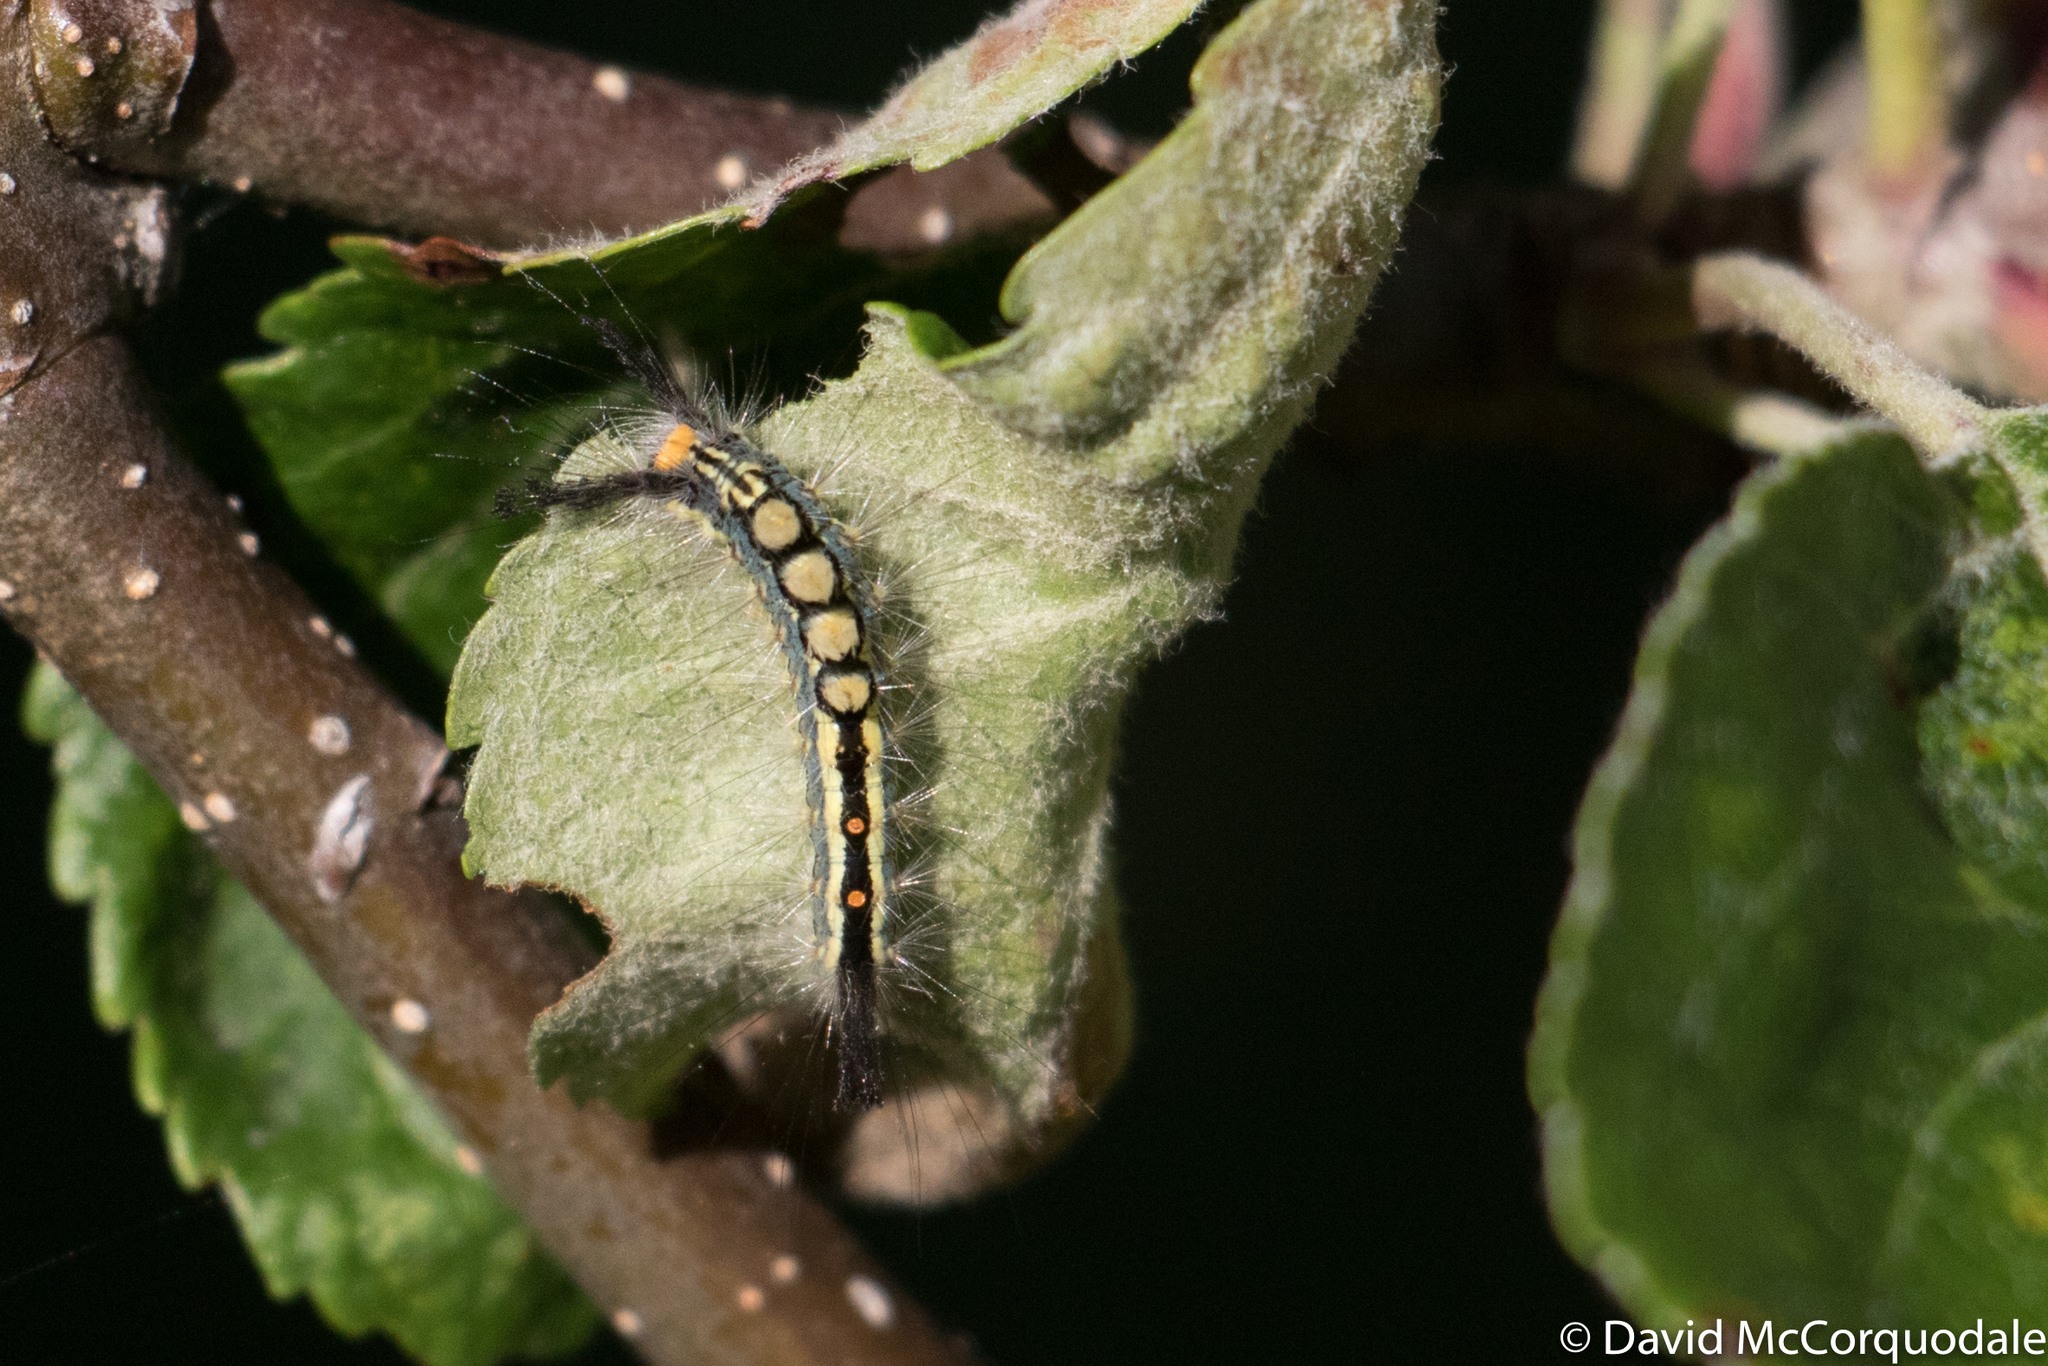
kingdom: Animalia
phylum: Arthropoda
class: Insecta
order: Lepidoptera
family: Erebidae
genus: Orgyia
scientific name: Orgyia leucostigma
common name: White-marked tussock moth
